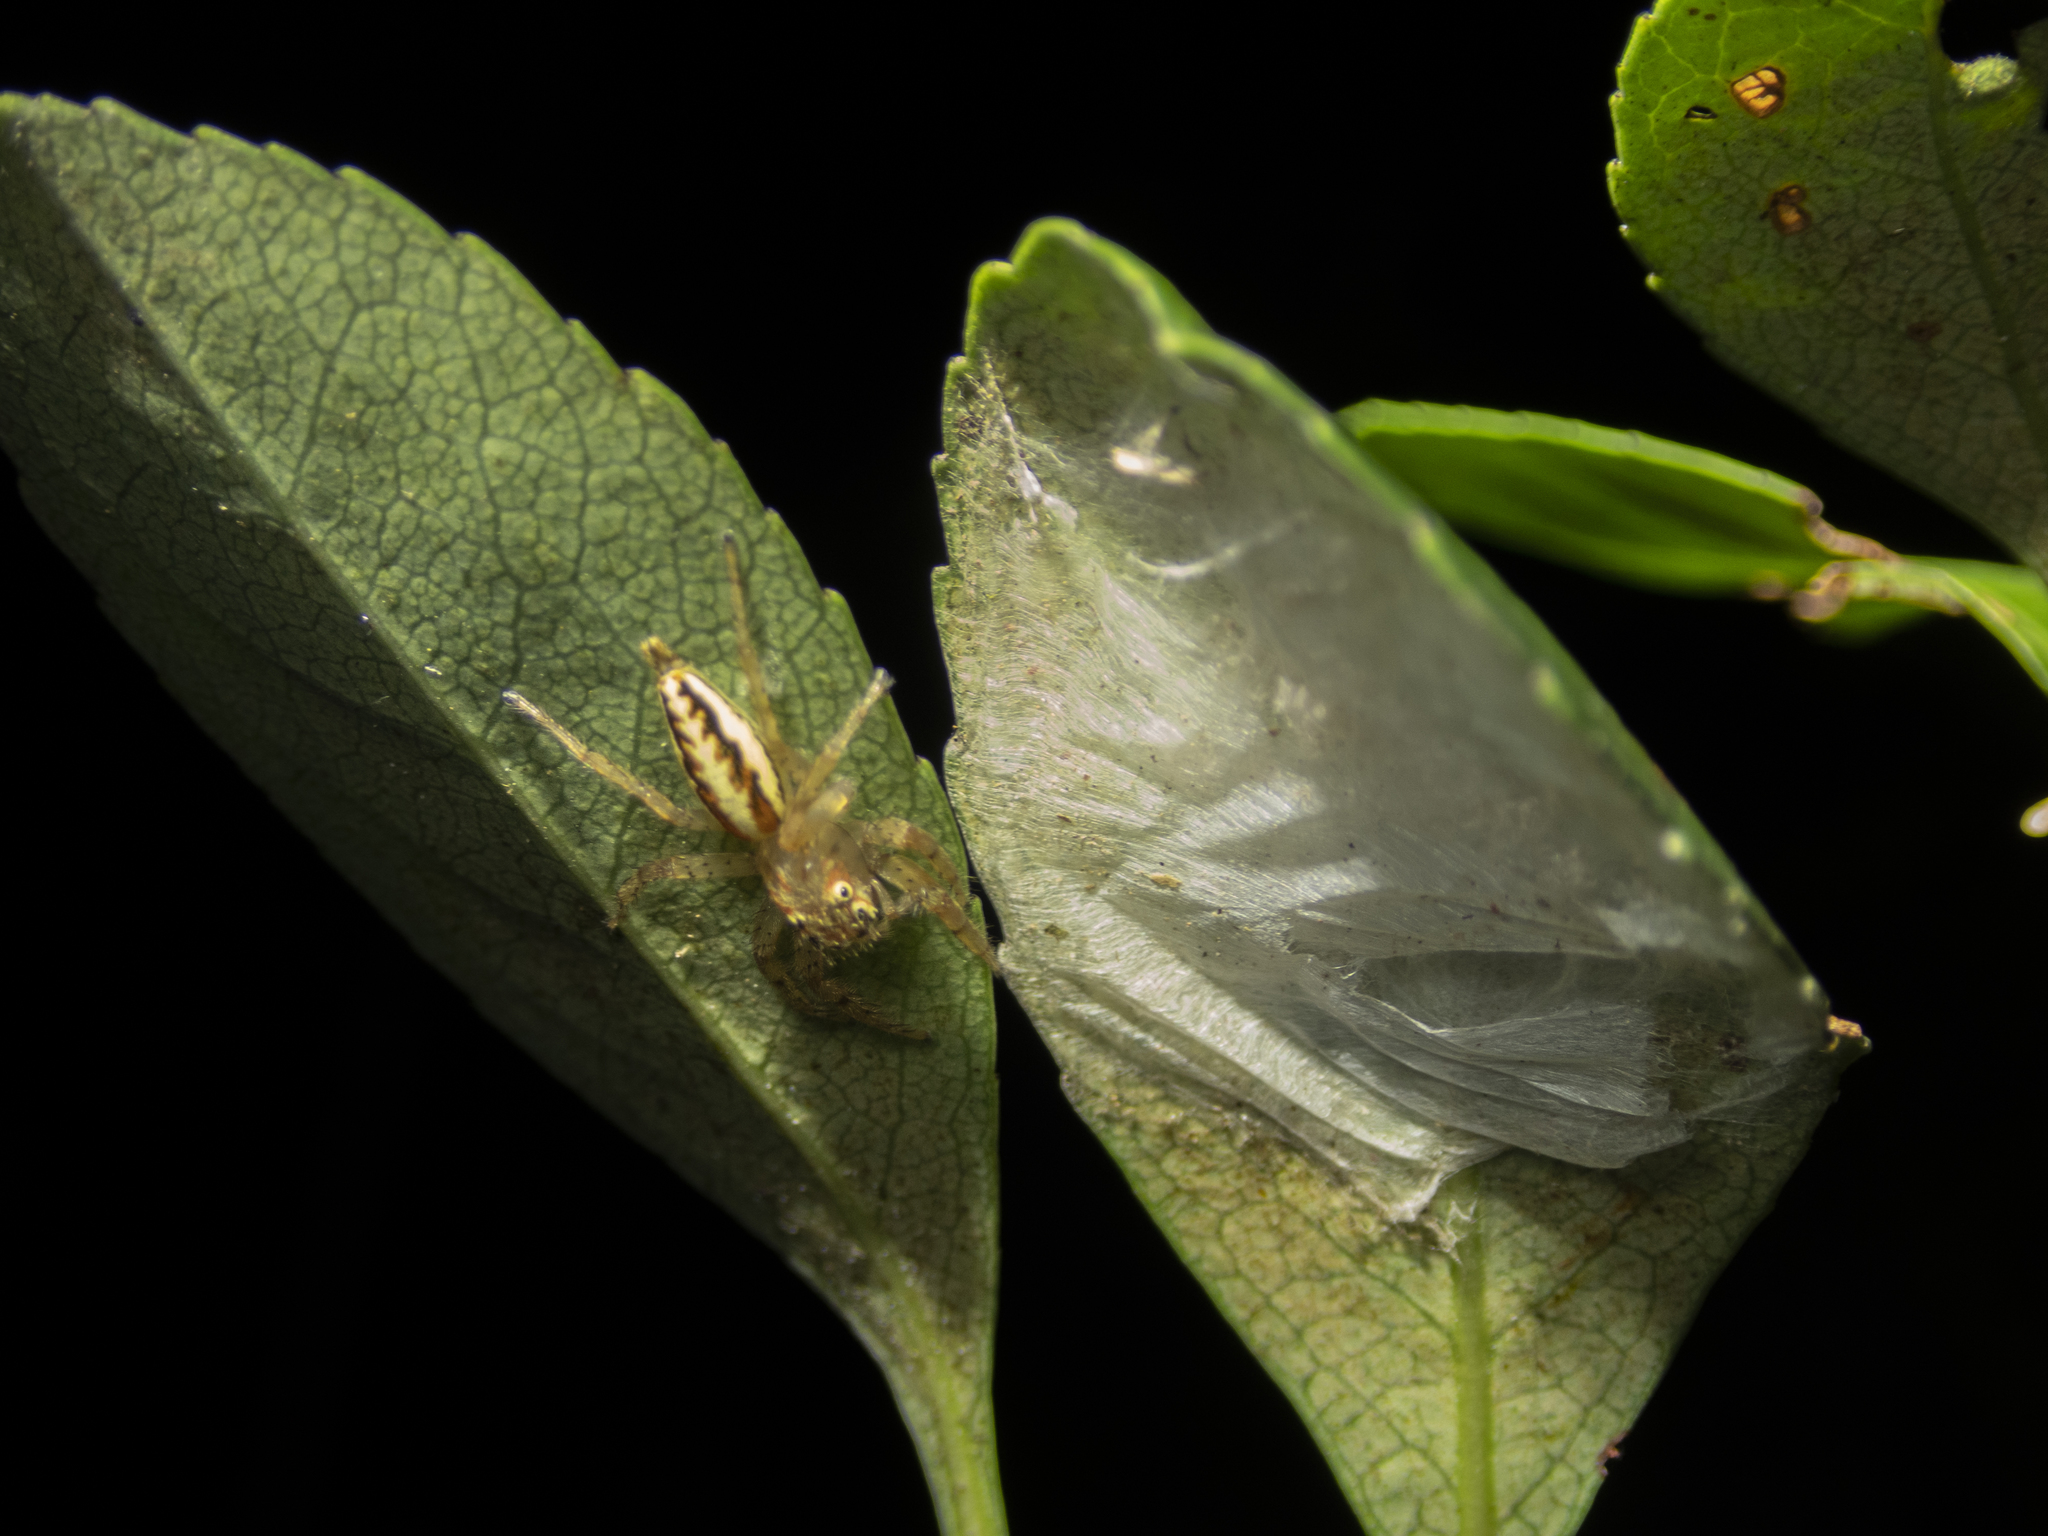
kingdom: Animalia
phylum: Arthropoda
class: Arachnida
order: Araneae
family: Salticidae
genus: Telamonia
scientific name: Telamonia caprina
